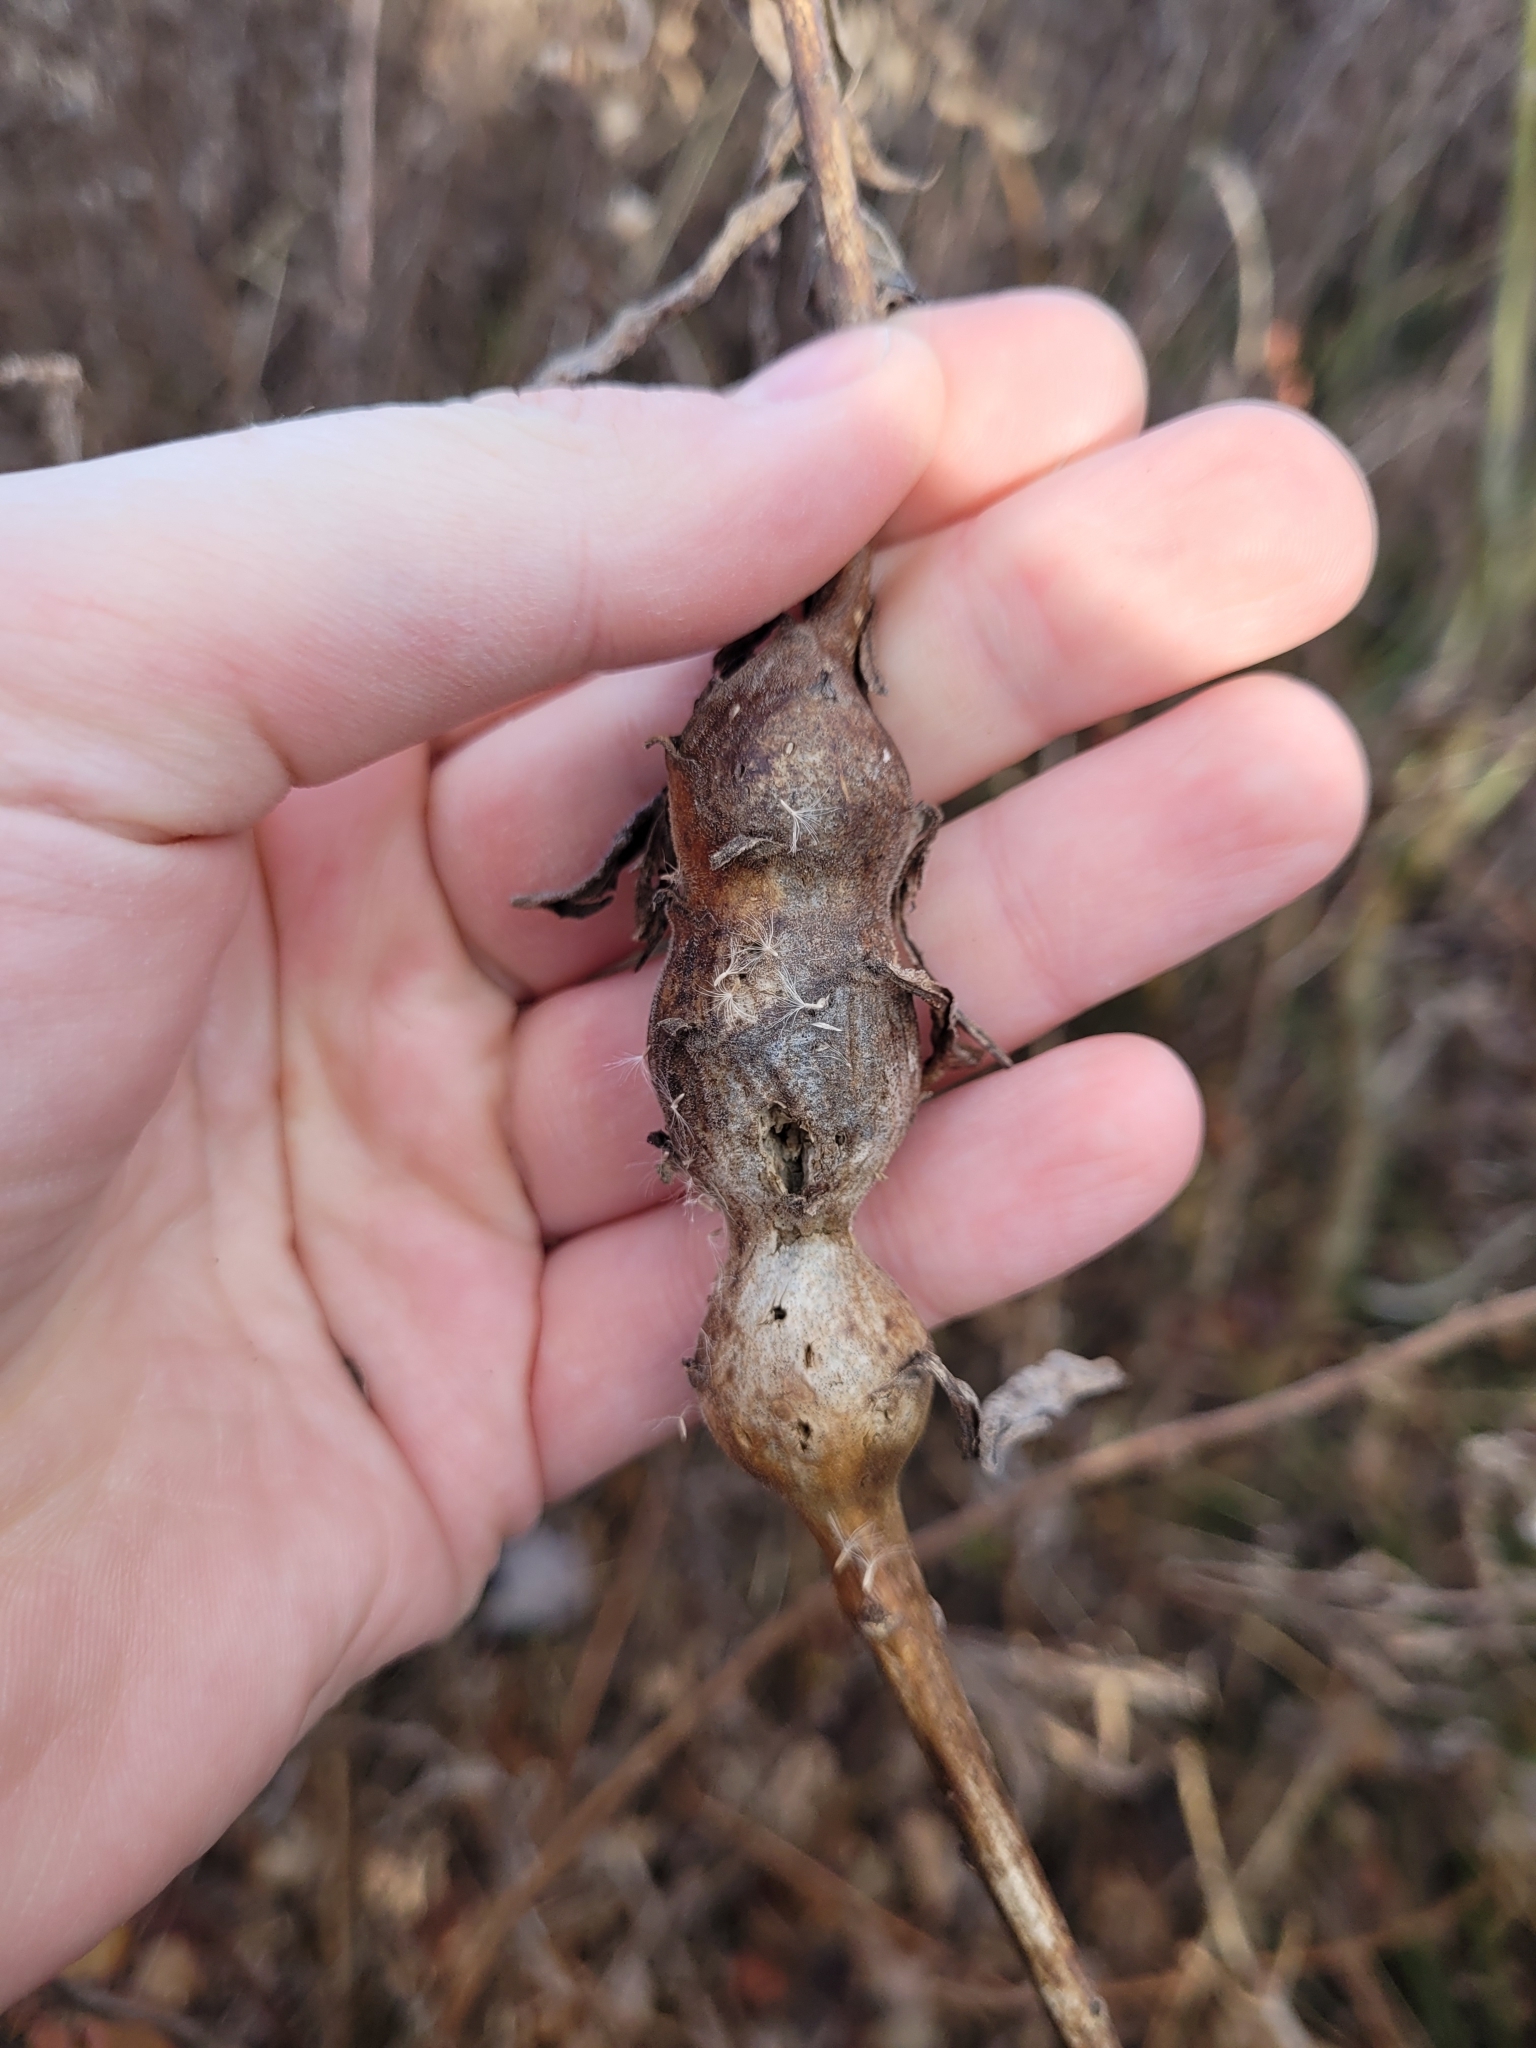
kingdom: Animalia
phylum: Arthropoda
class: Insecta
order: Diptera
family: Tephritidae
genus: Eurosta
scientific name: Eurosta solidaginis
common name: Goldenrod gall fly
